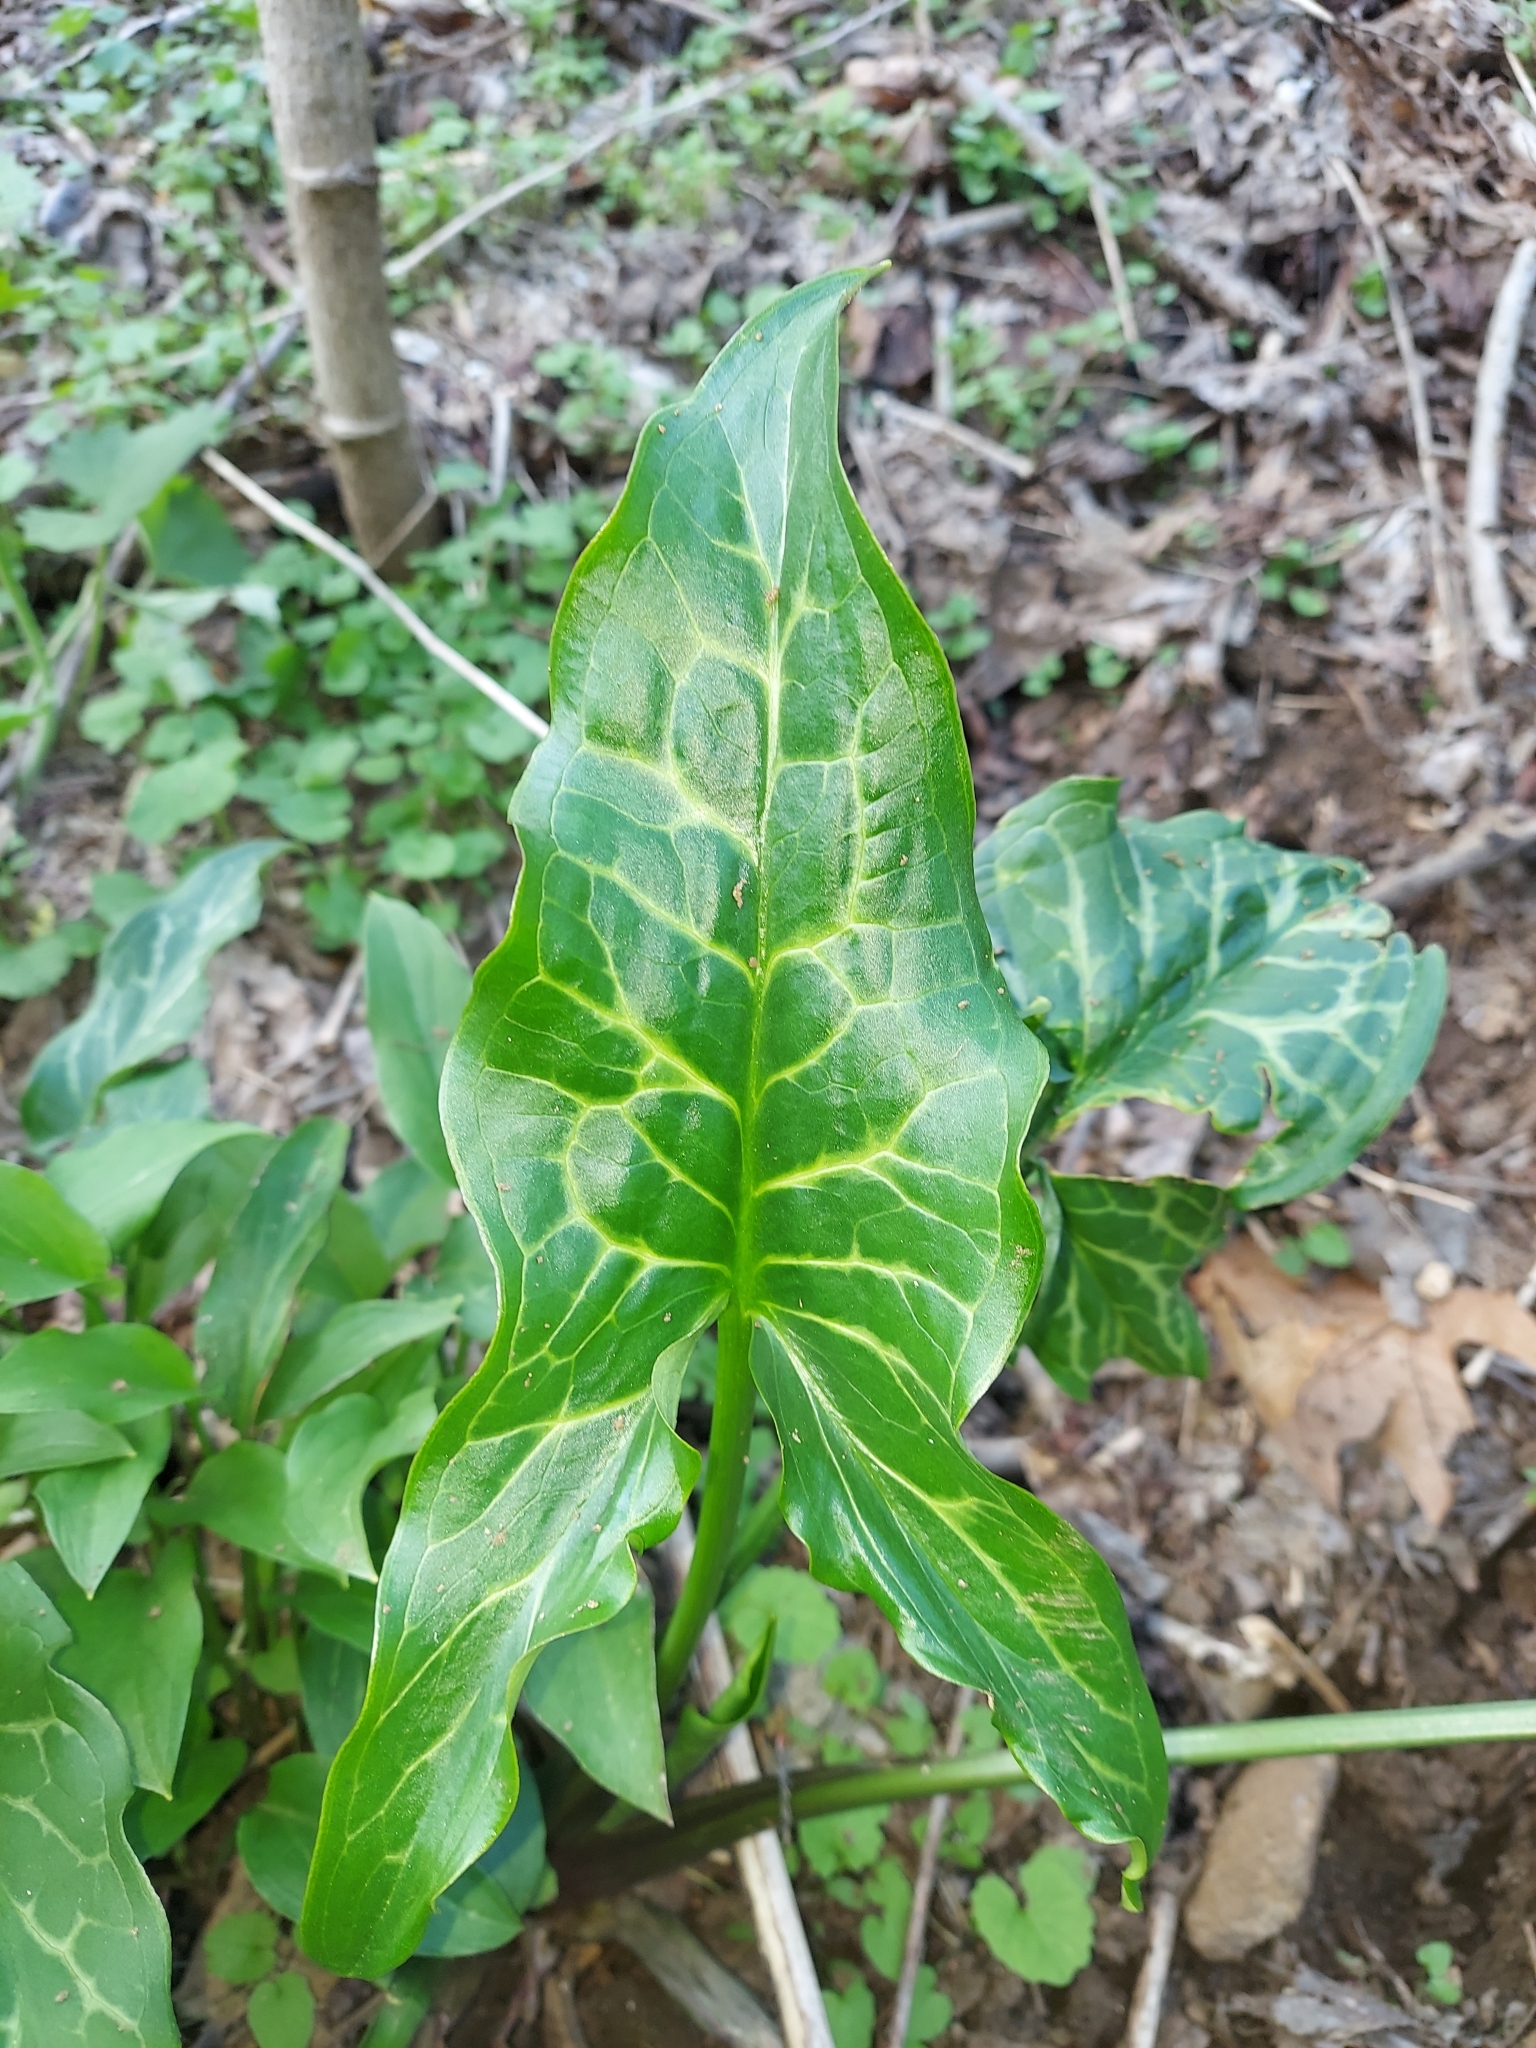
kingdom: Plantae
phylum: Tracheophyta
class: Liliopsida
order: Alismatales
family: Araceae
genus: Arum
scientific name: Arum italicum
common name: Italian lords-and-ladies
